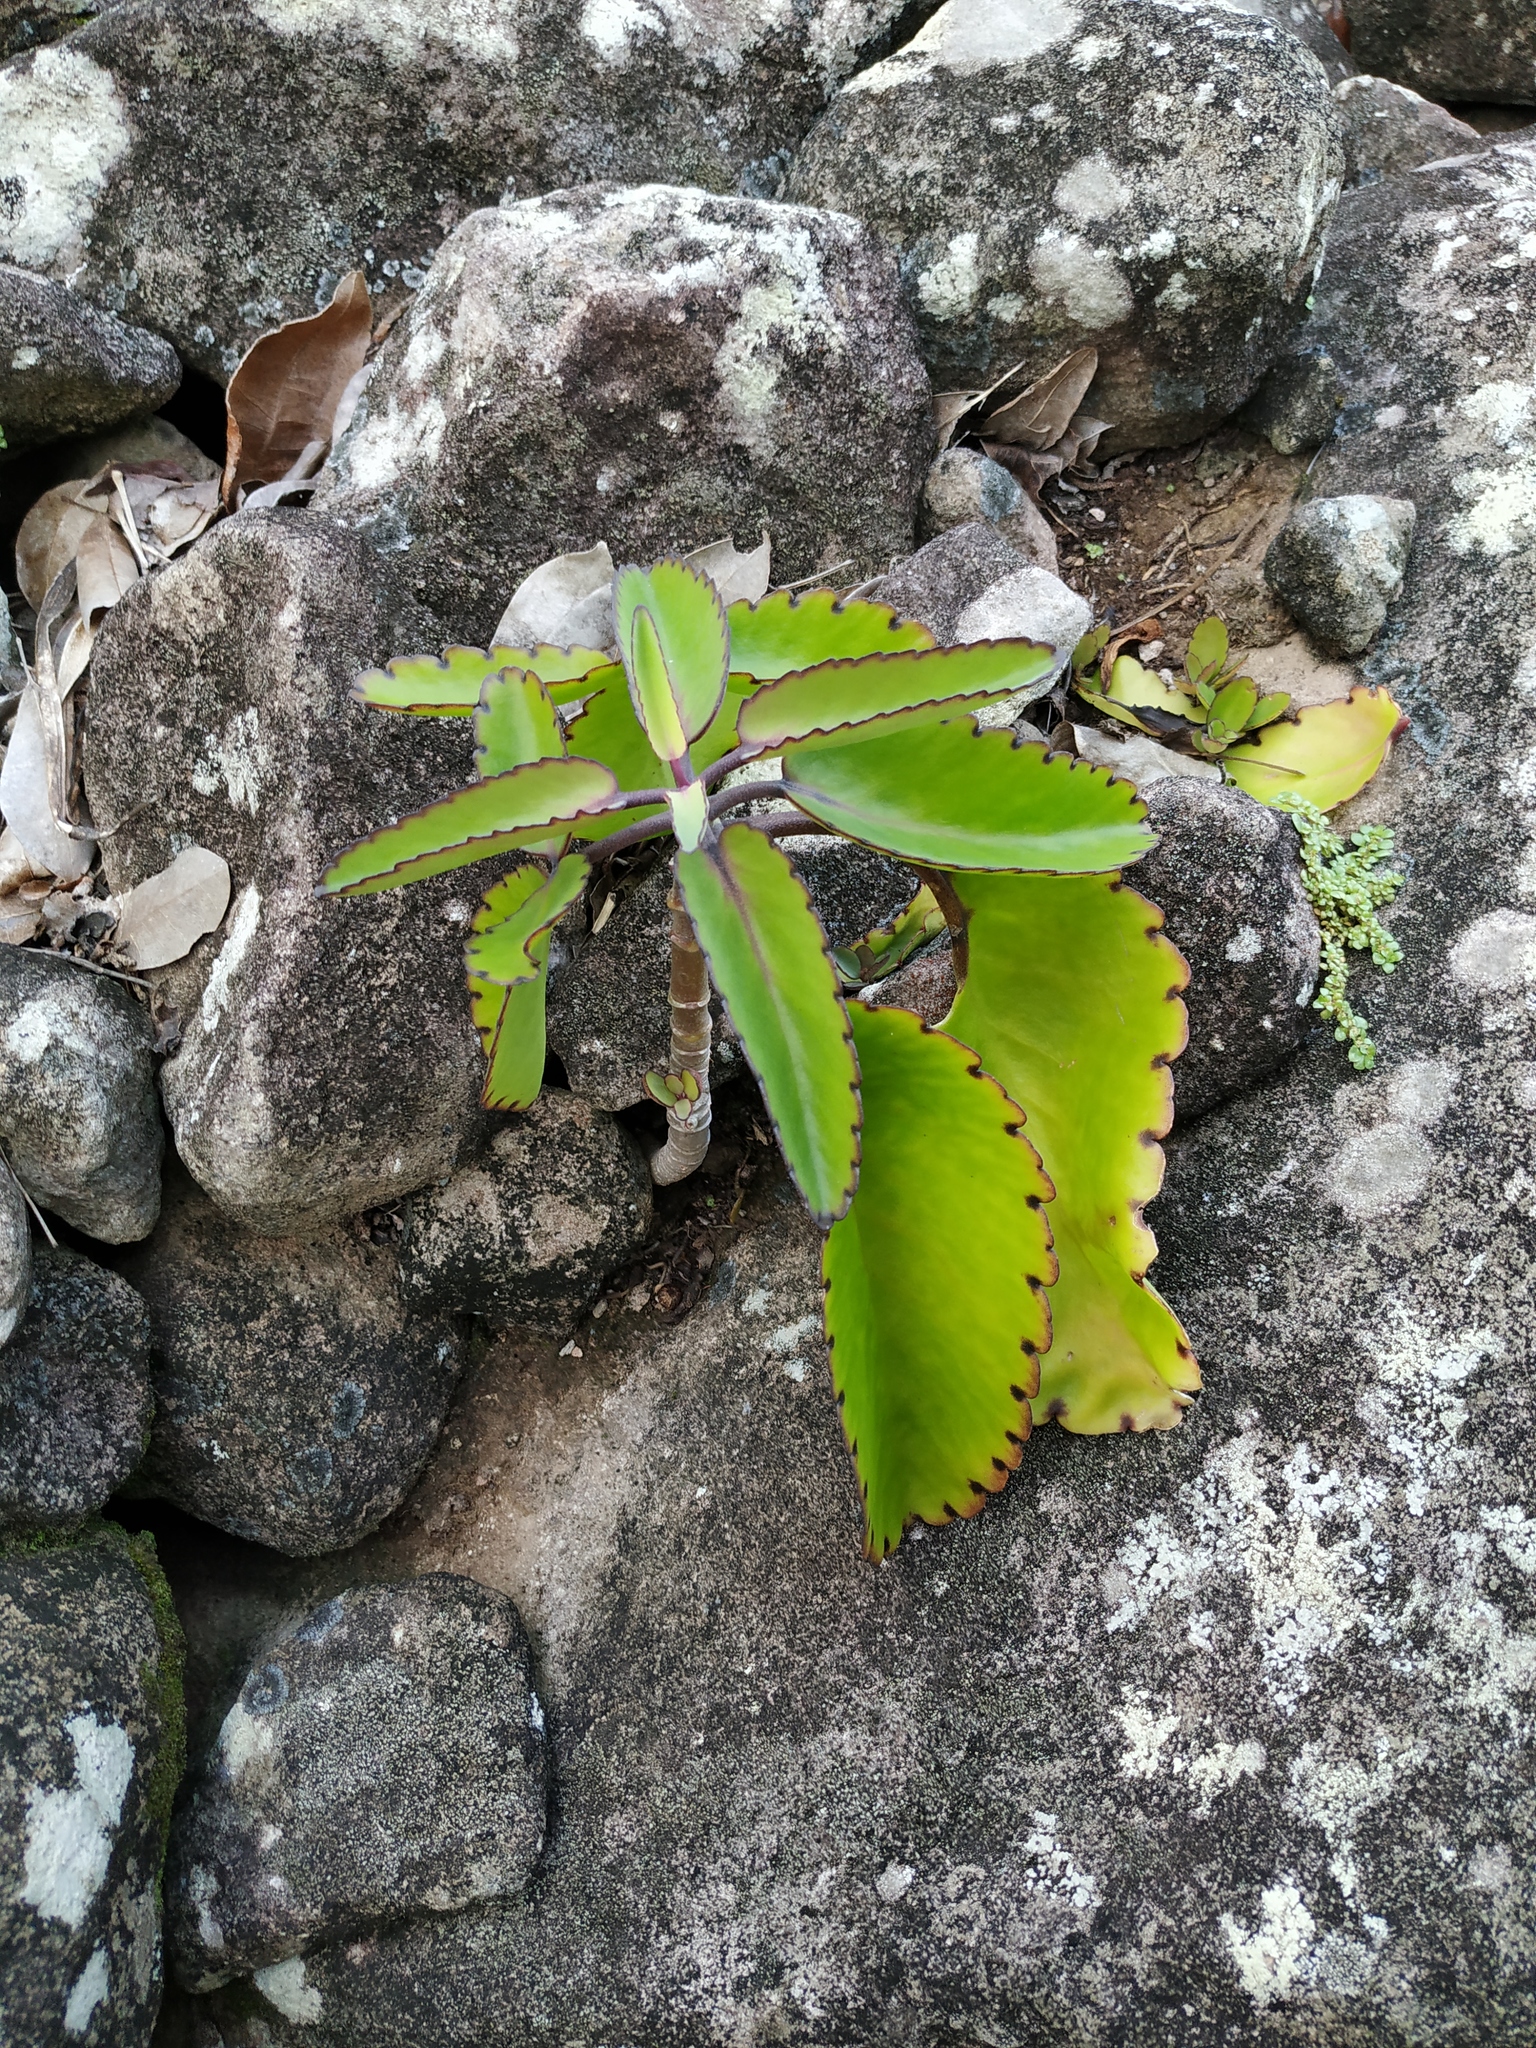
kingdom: Plantae
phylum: Tracheophyta
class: Magnoliopsida
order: Saxifragales
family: Crassulaceae
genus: Kalanchoe
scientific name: Kalanchoe pinnata
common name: Cathedral bells
